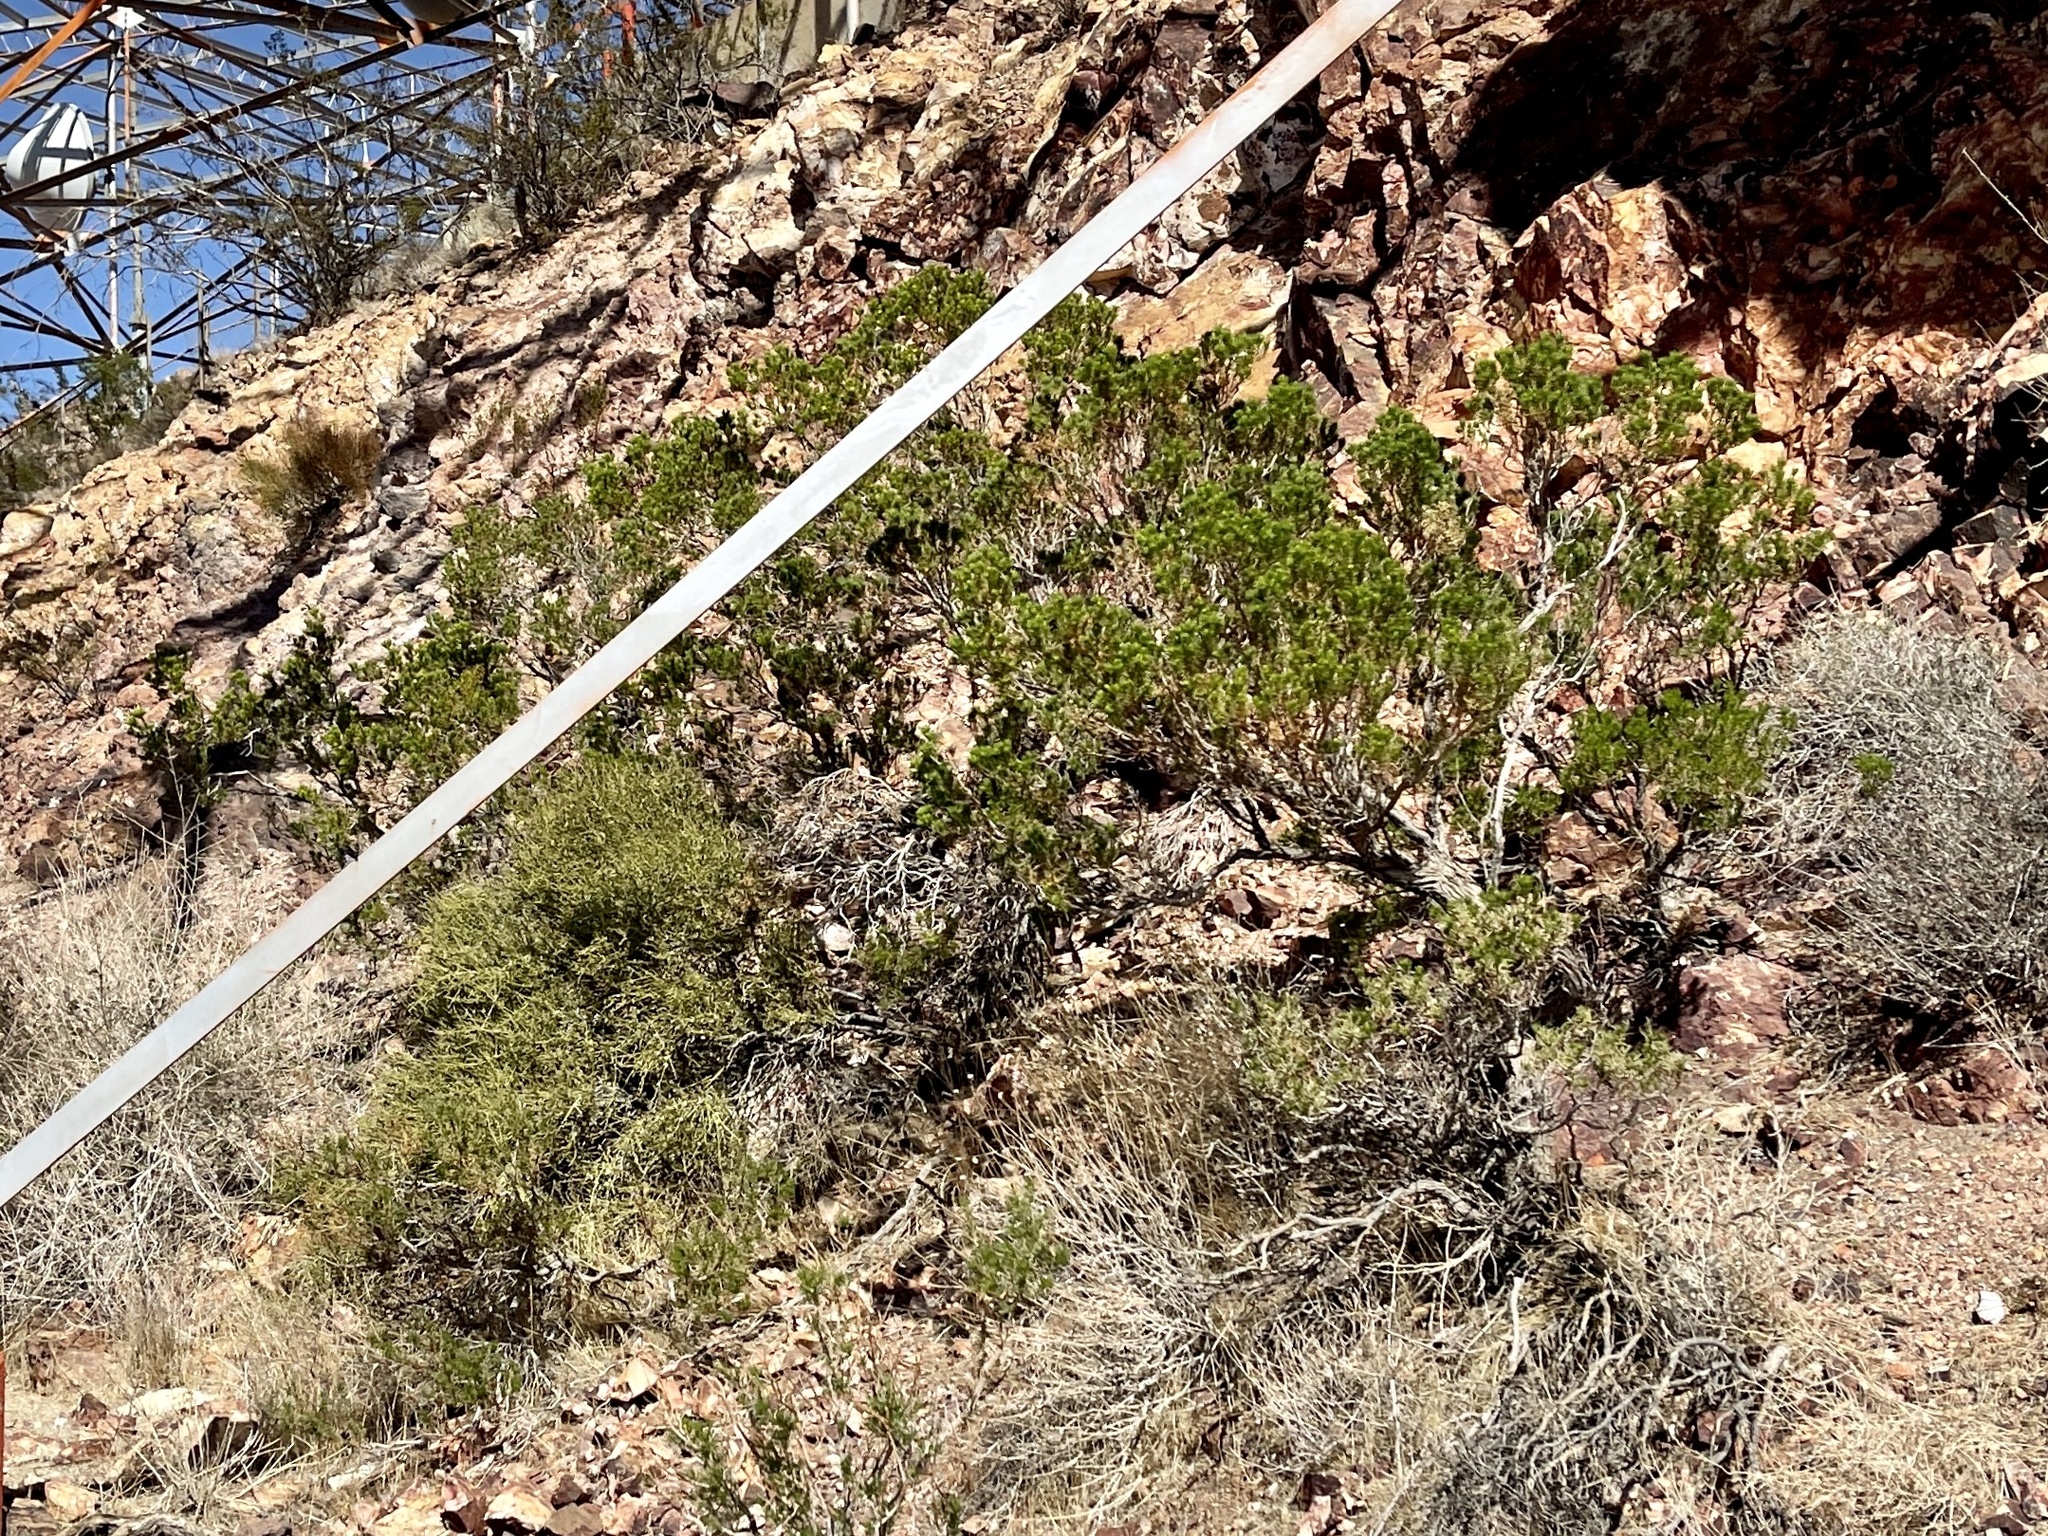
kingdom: Plantae
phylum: Tracheophyta
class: Magnoliopsida
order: Asterales
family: Asteraceae
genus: Peucephyllum
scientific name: Peucephyllum schottii
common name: Pygmy-cedar
